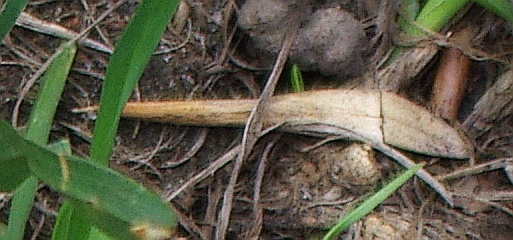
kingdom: Plantae
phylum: Tracheophyta
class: Magnoliopsida
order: Lamiales
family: Oleaceae
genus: Fraxinus
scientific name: Fraxinus pennsylvanica
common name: Green ash
